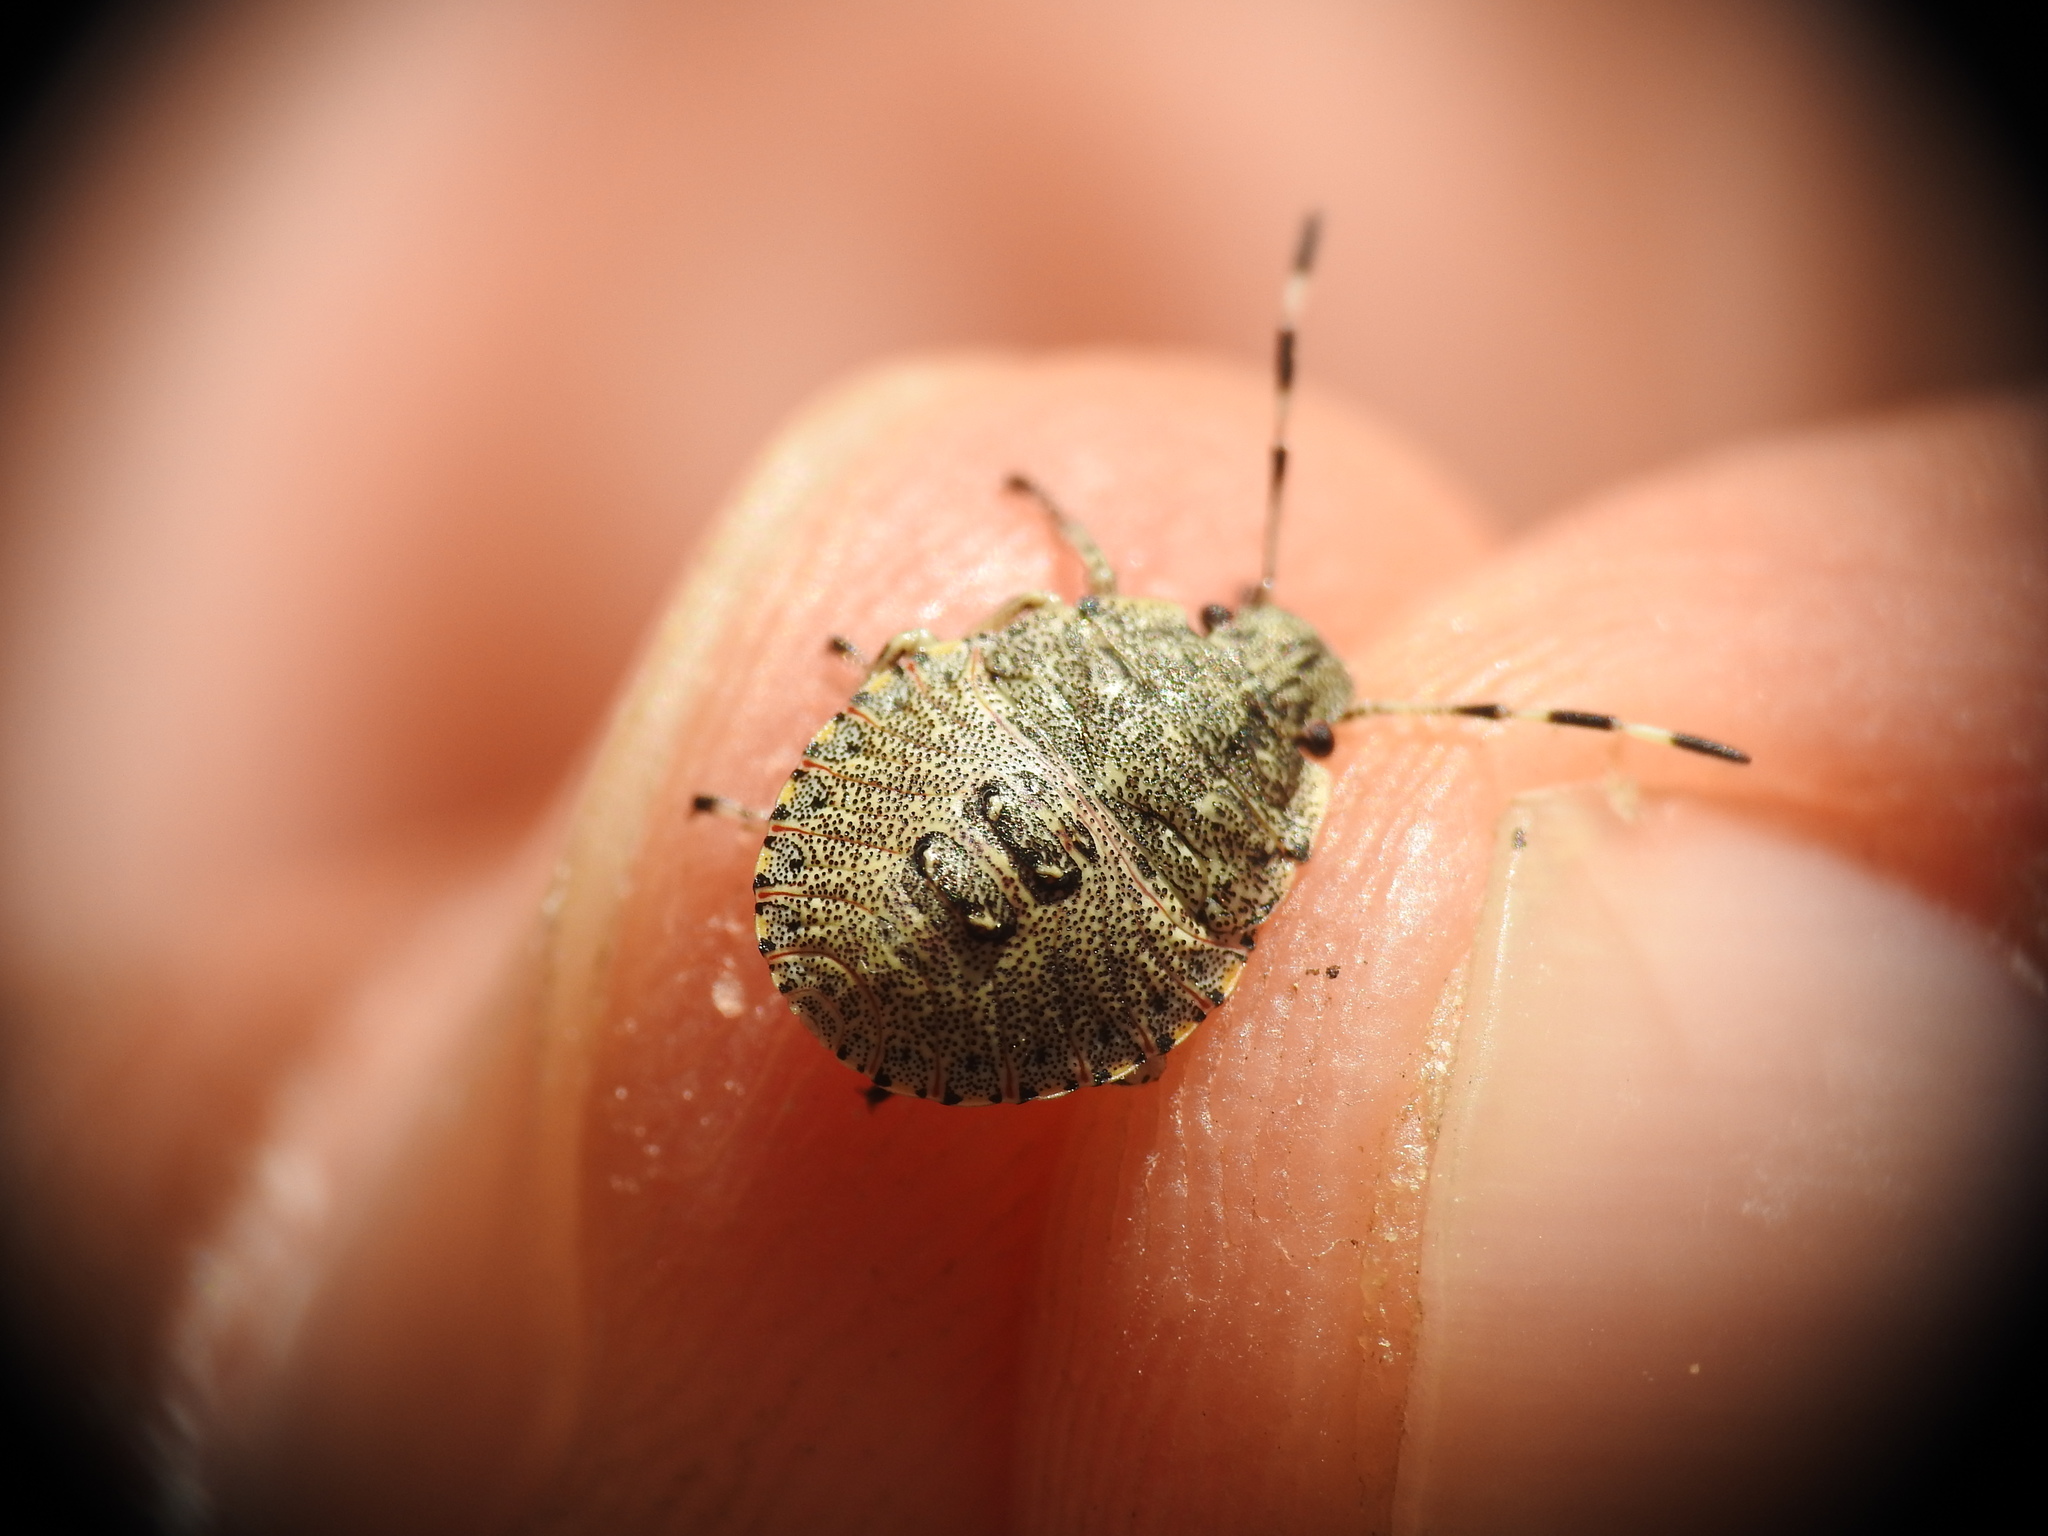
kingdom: Animalia
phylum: Arthropoda
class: Insecta
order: Hemiptera
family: Pentatomidae
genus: Rhaphigaster
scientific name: Rhaphigaster nebulosa
